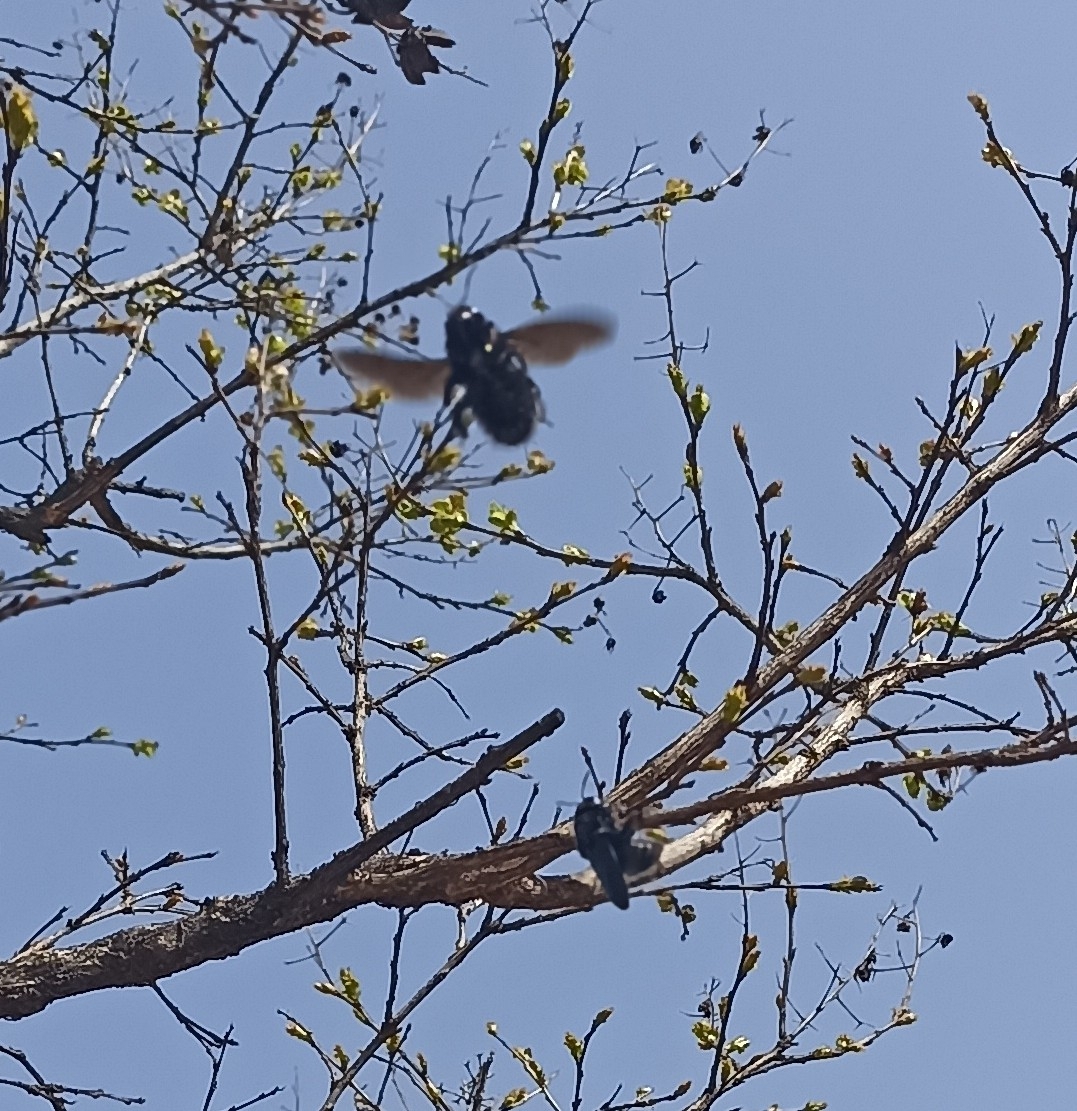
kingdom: Animalia
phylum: Arthropoda
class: Insecta
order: Hymenoptera
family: Apidae
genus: Xylocopa
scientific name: Xylocopa
